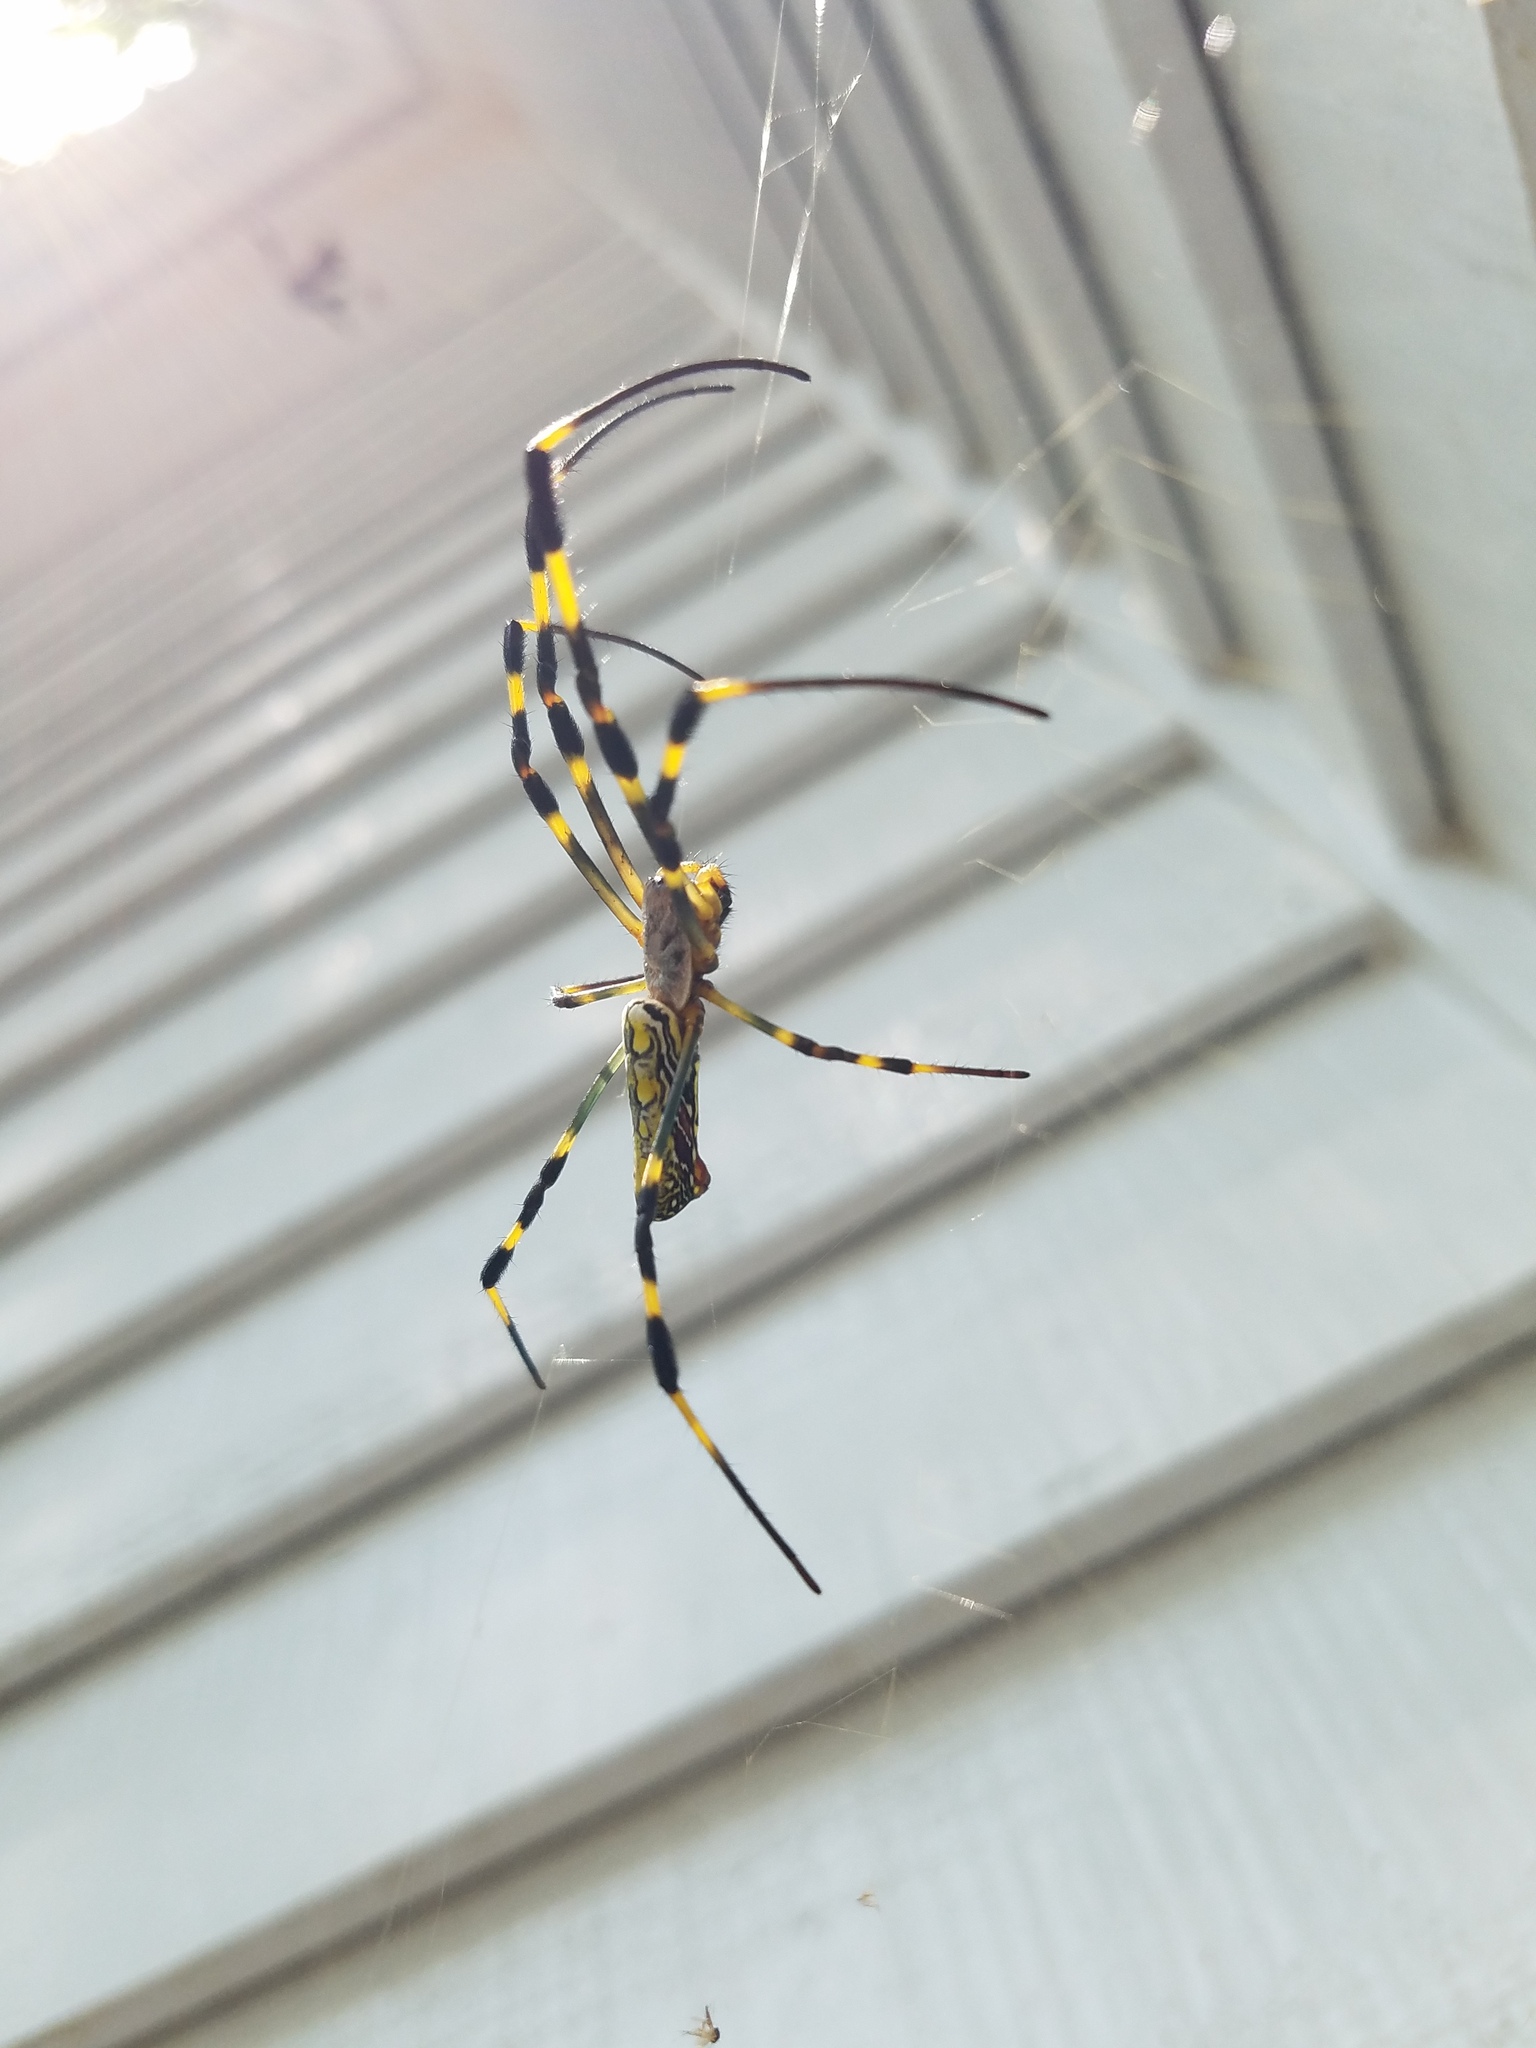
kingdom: Animalia
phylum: Arthropoda
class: Arachnida
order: Araneae
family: Araneidae
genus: Trichonephila
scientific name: Trichonephila clavata
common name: Jorō spider
